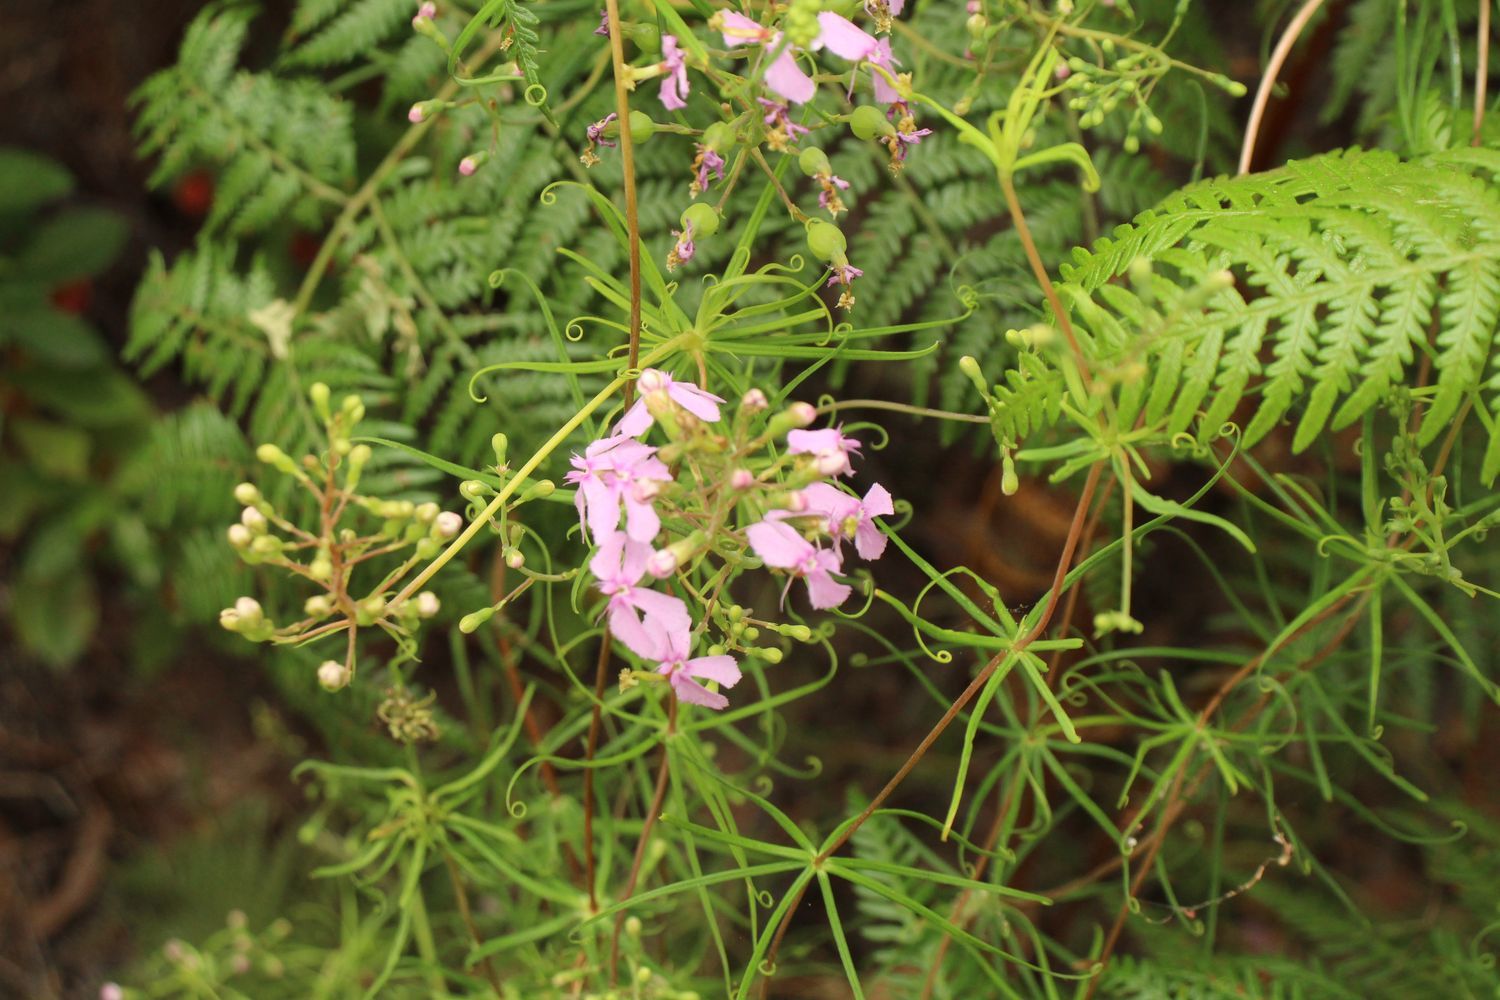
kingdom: Plantae
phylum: Tracheophyta
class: Magnoliopsida
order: Asterales
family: Stylidiaceae
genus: Stylidium
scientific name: Stylidium scandens
